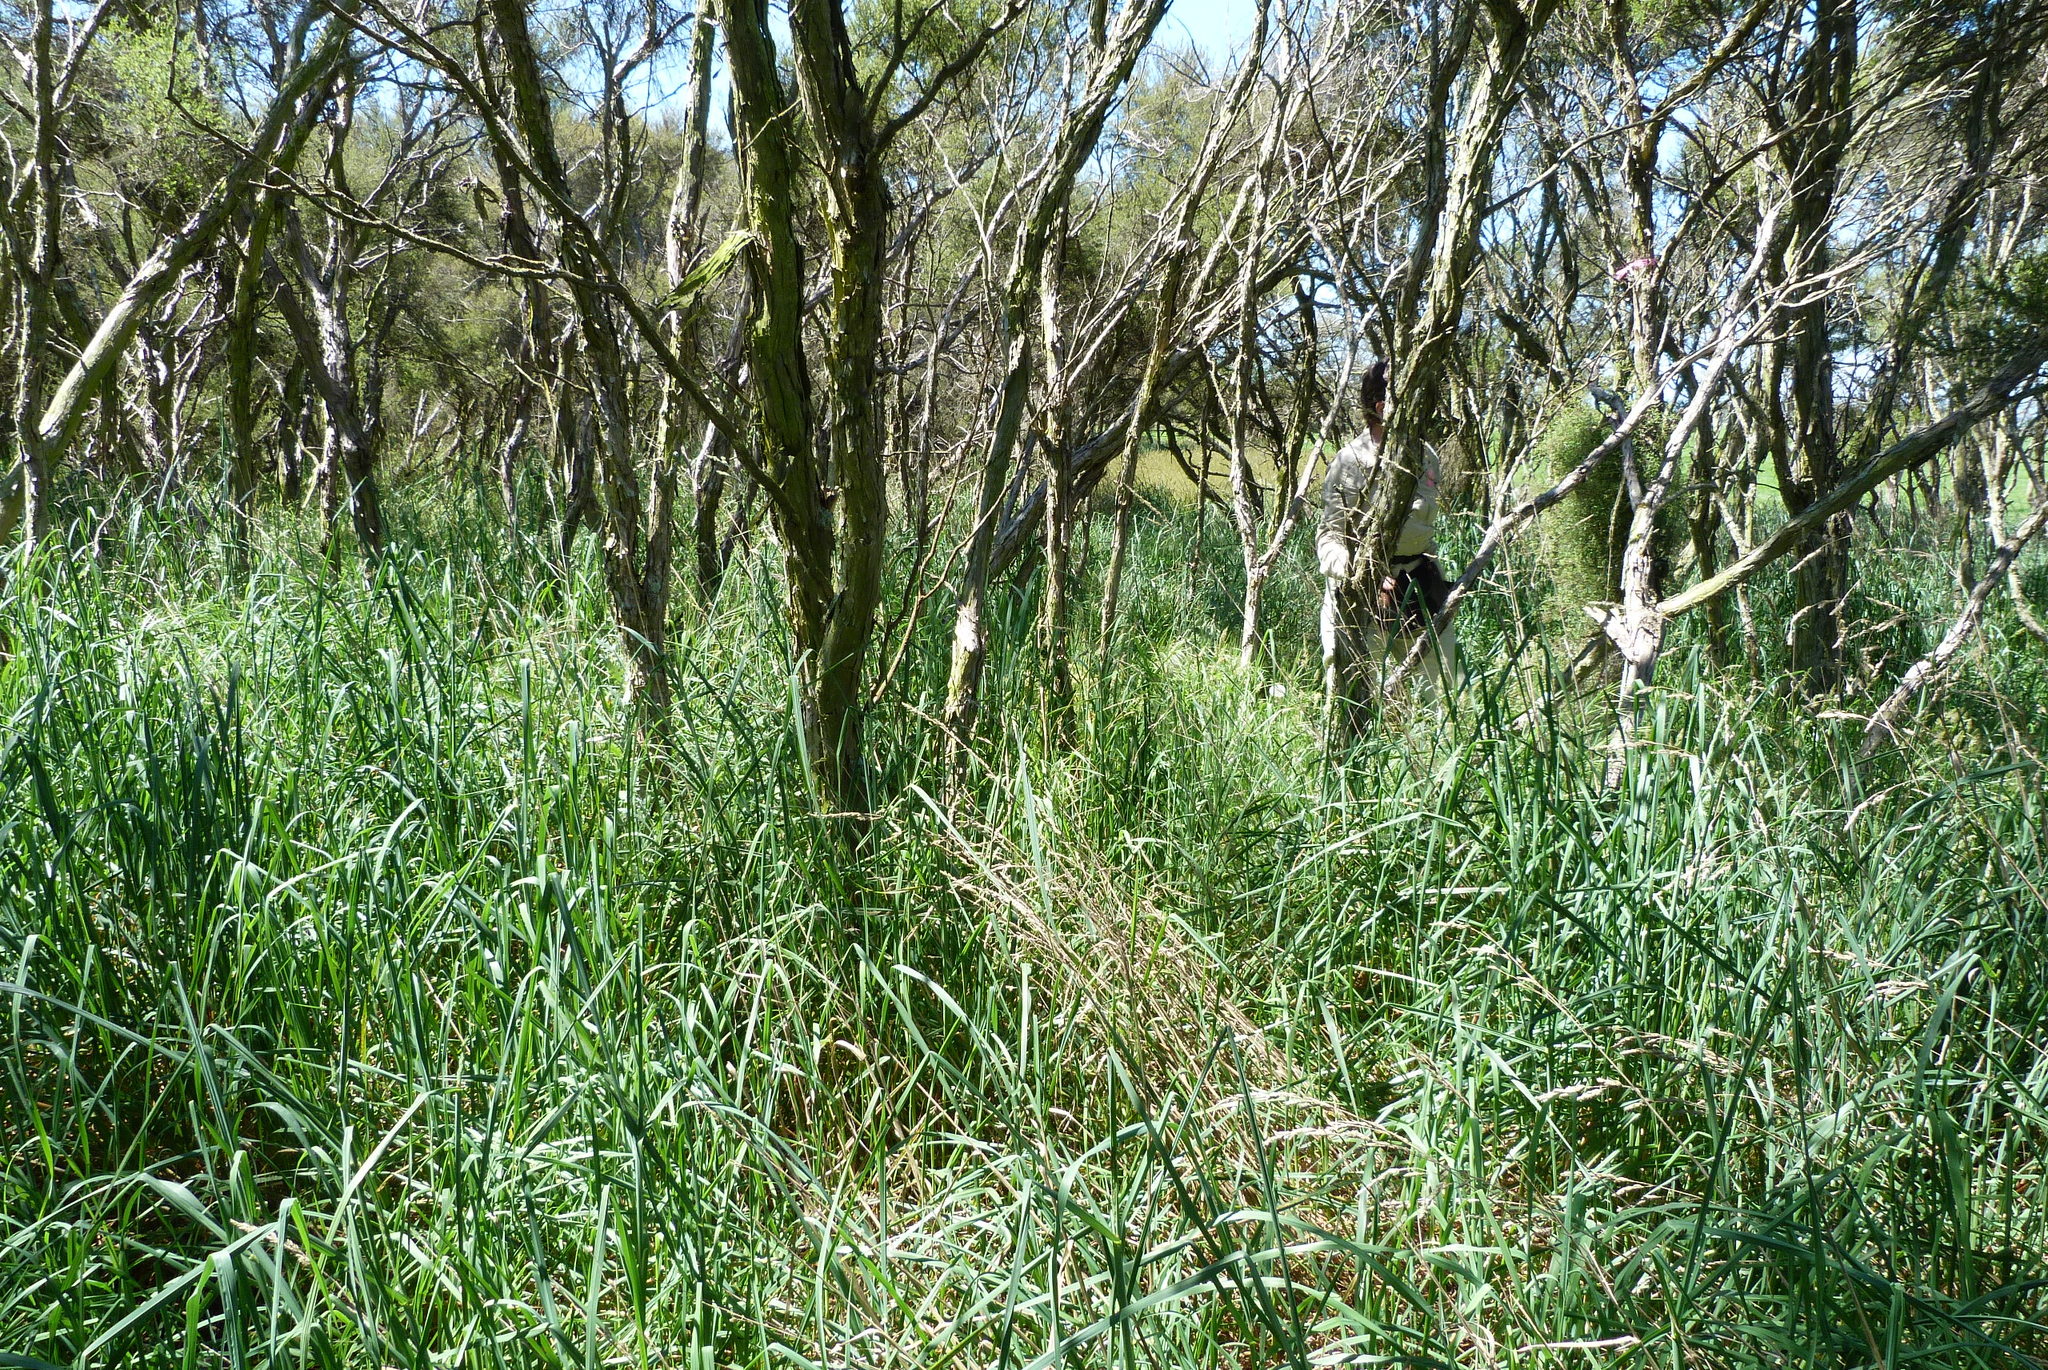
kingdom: Plantae
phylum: Tracheophyta
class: Liliopsida
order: Poales
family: Poaceae
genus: Dactylis
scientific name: Dactylis glomerata
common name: Orchardgrass
